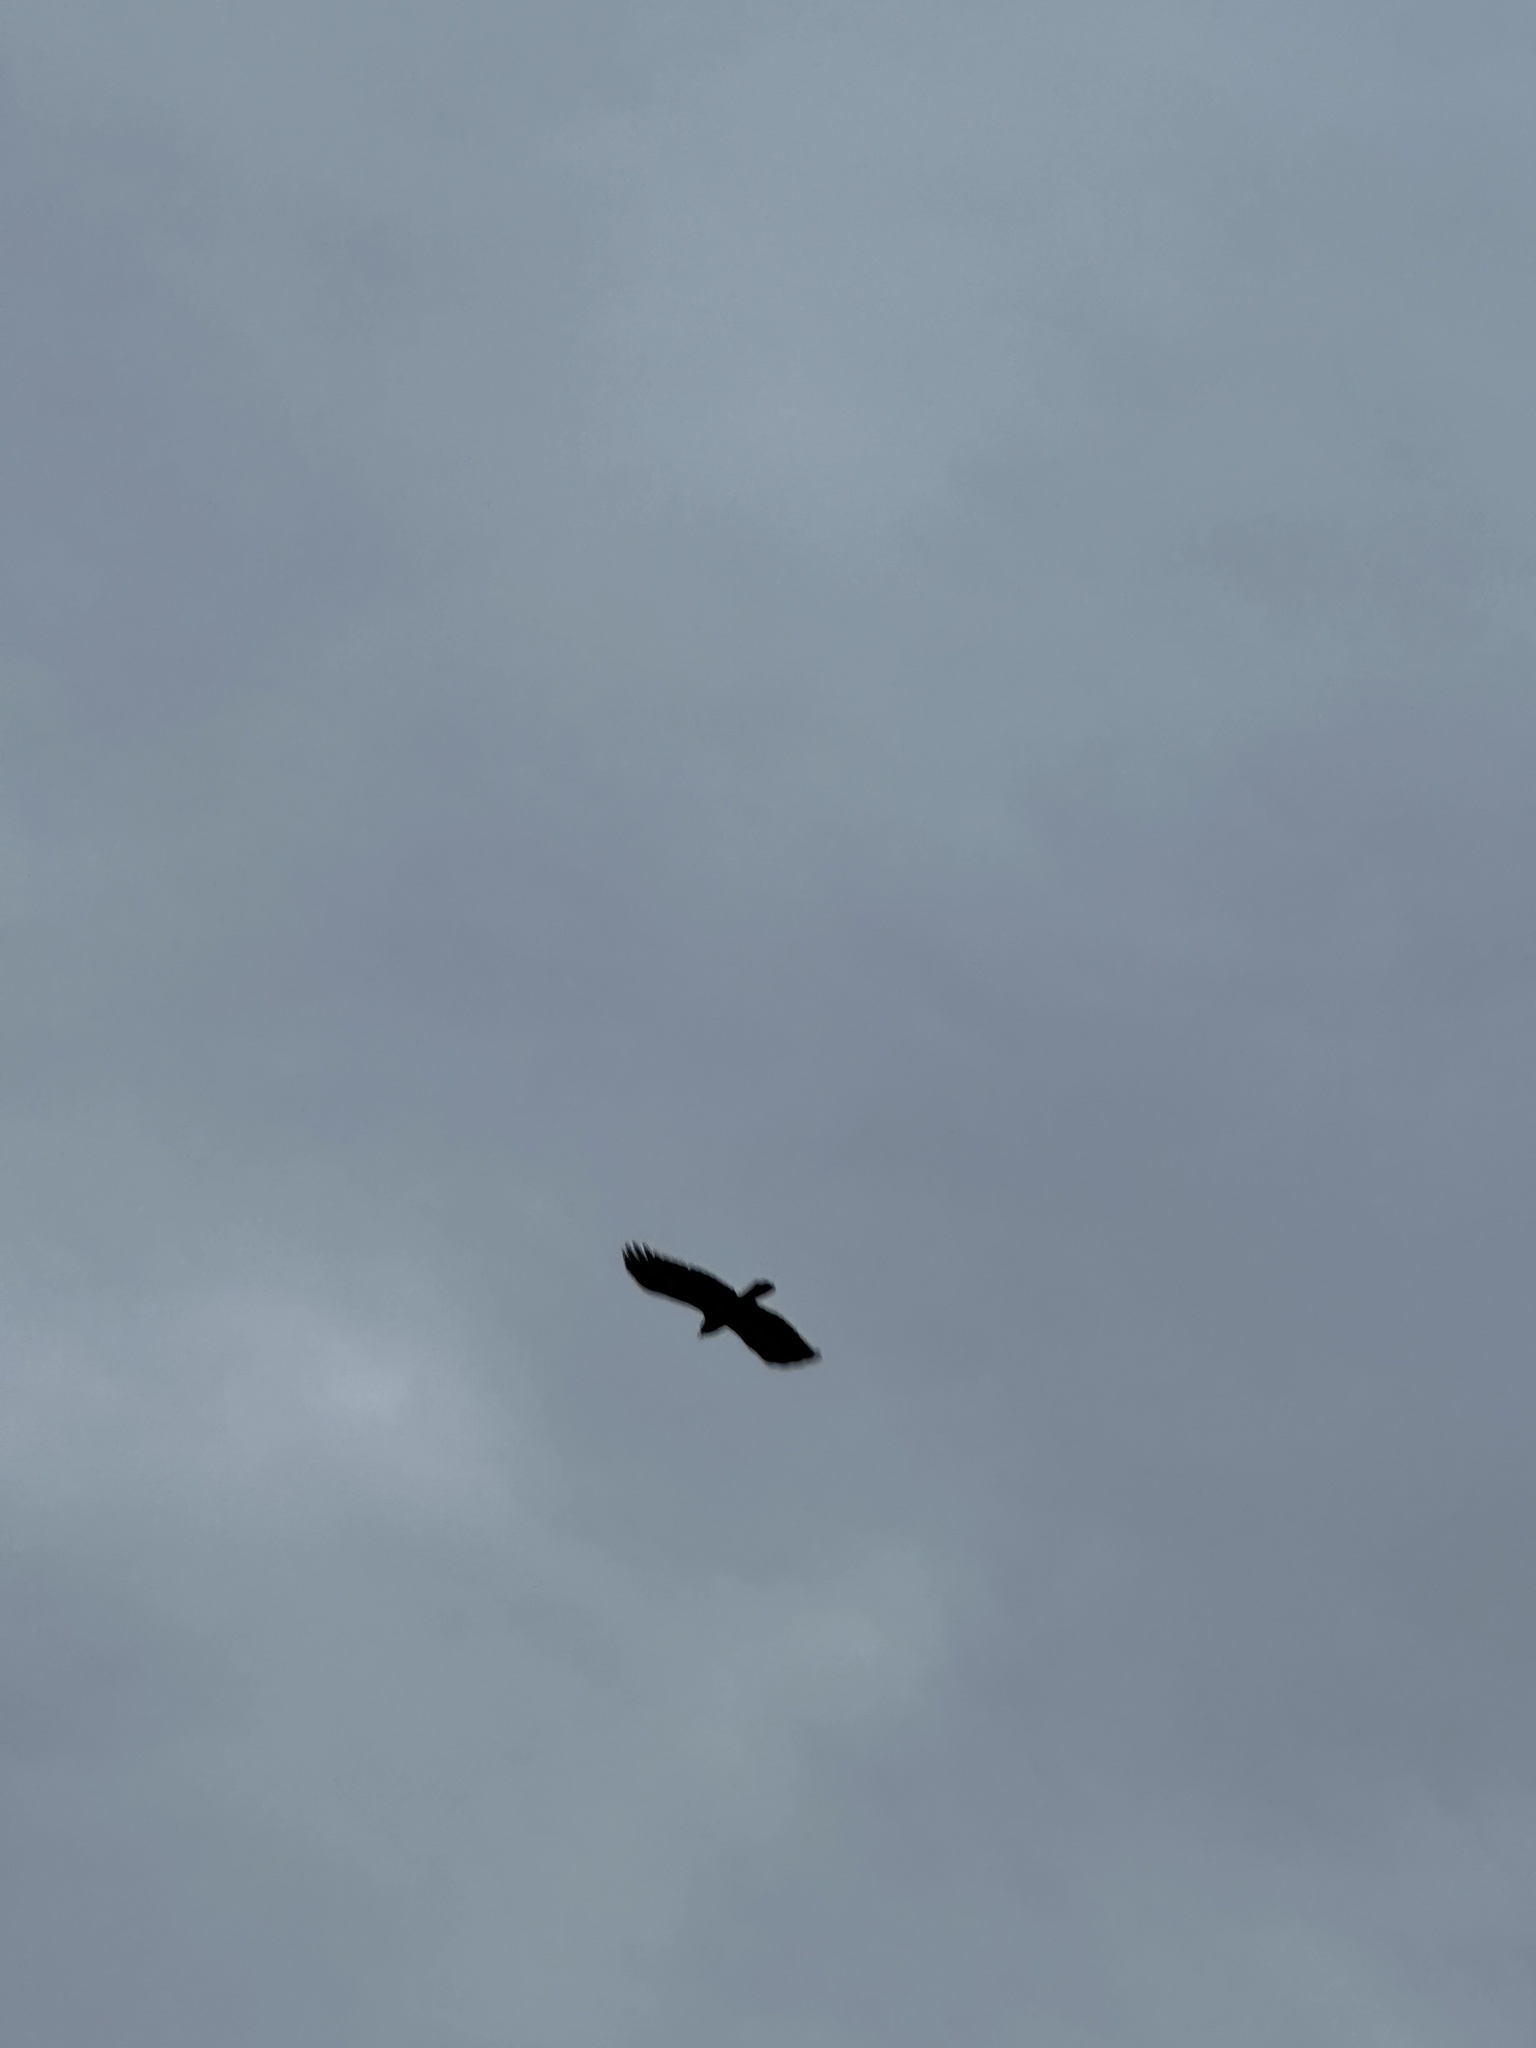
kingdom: Animalia
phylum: Chordata
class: Aves
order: Passeriformes
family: Corvidae
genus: Corvus
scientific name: Corvus brachyrhynchos
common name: American crow
